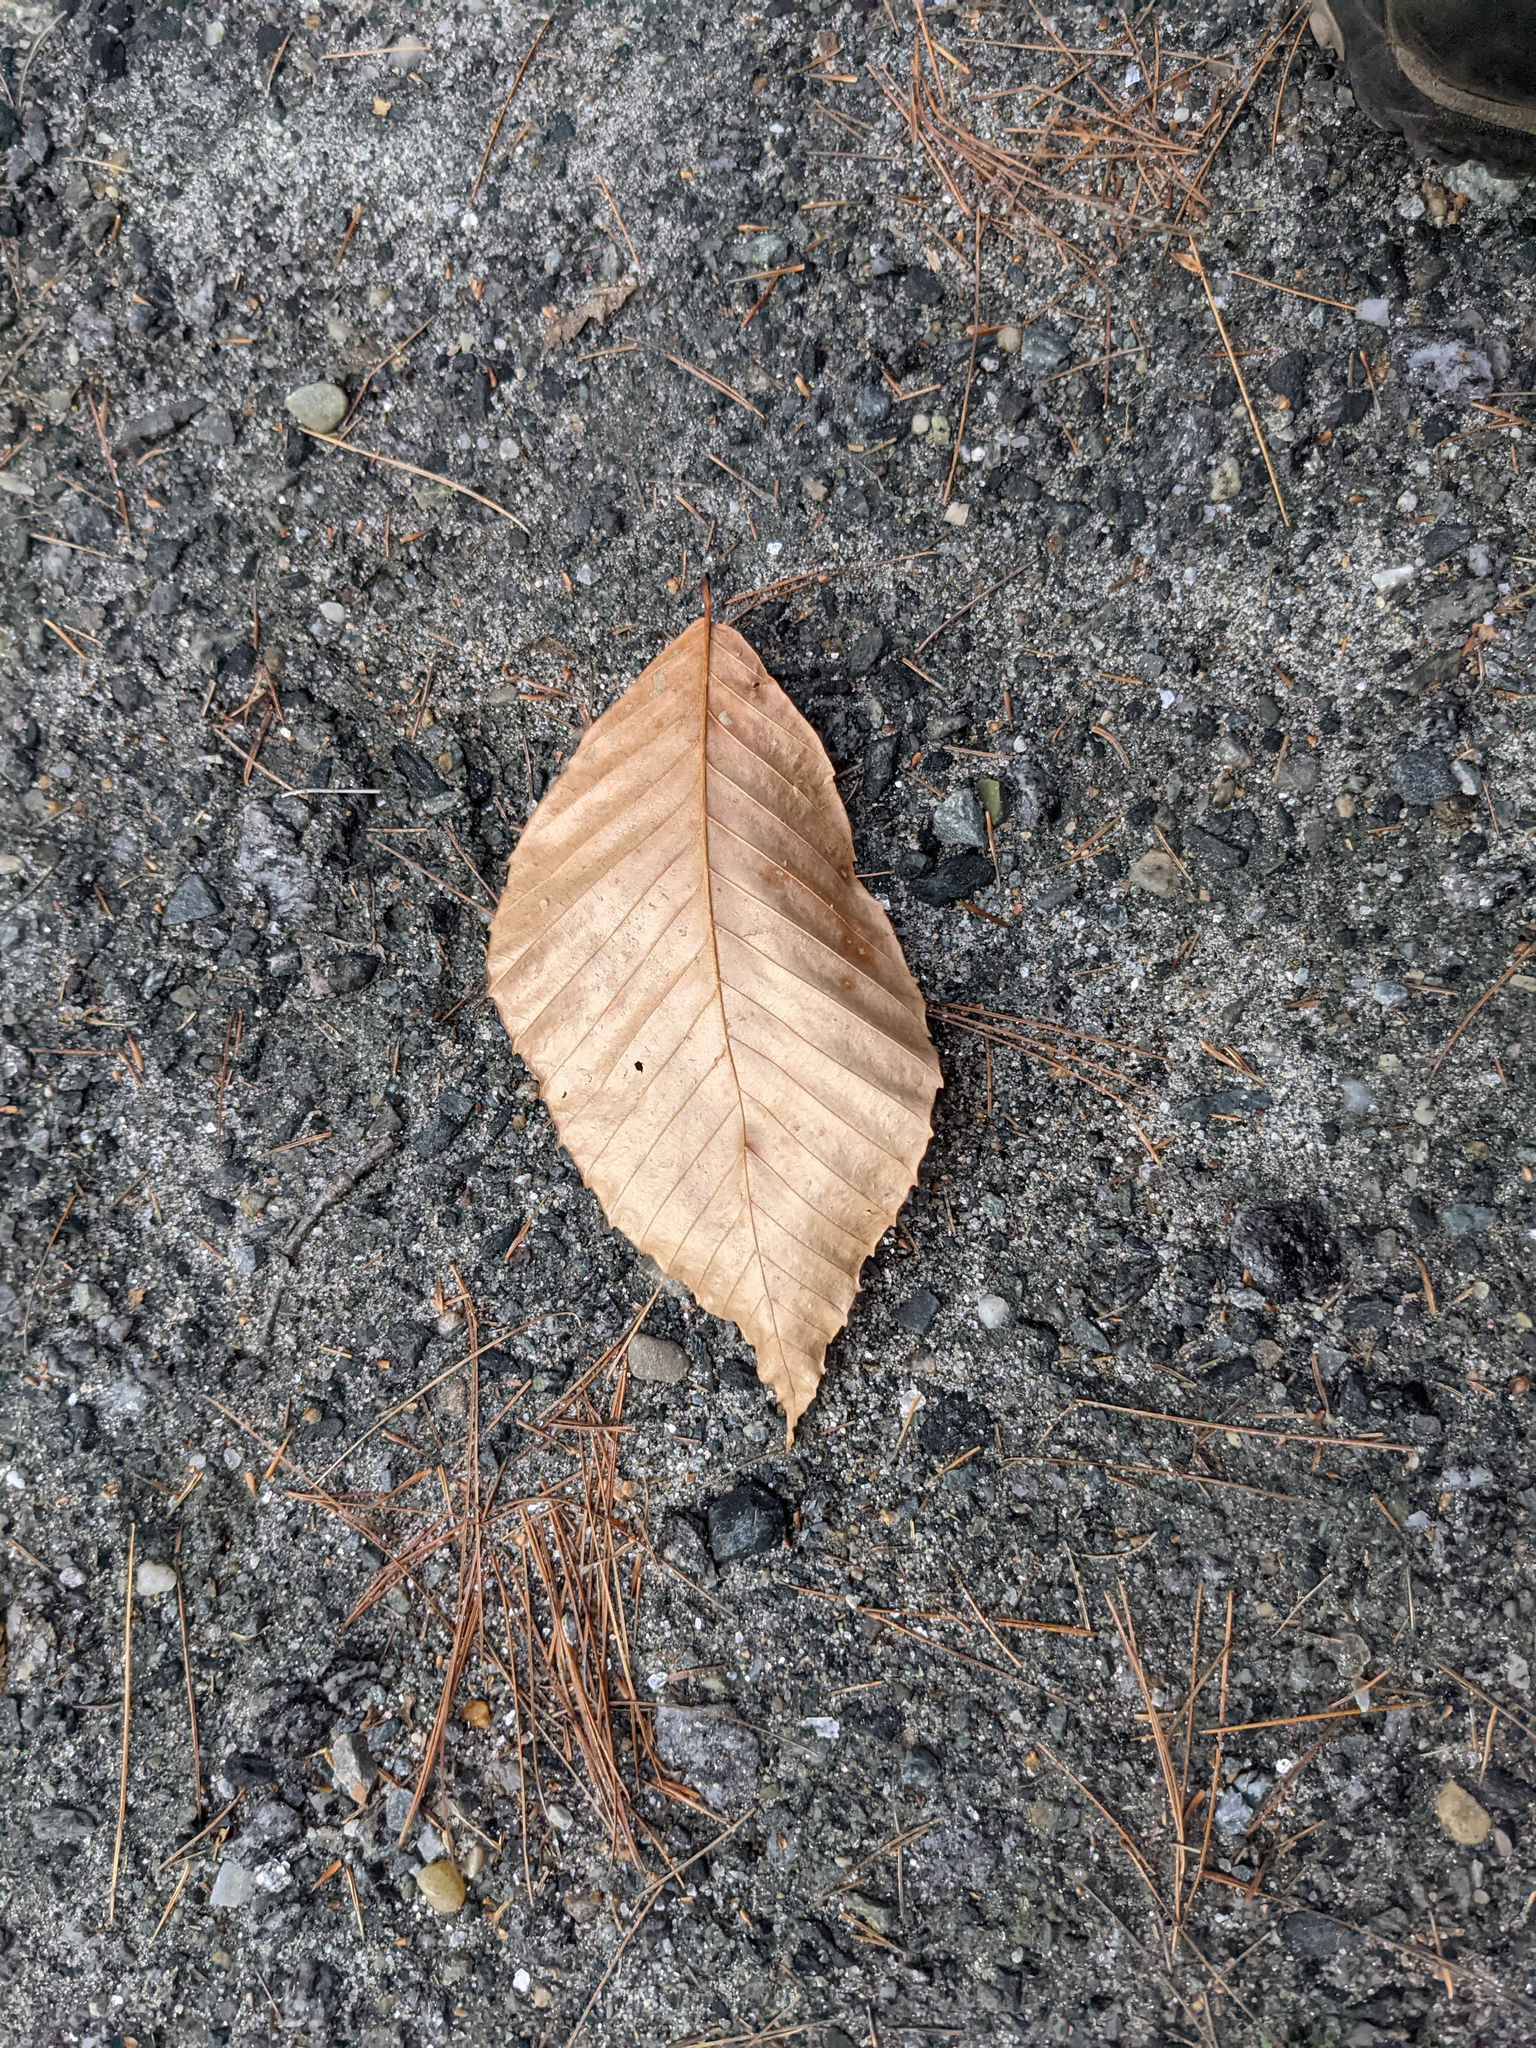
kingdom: Plantae
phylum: Tracheophyta
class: Magnoliopsida
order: Fagales
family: Fagaceae
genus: Fagus
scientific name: Fagus grandifolia
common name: American beech
